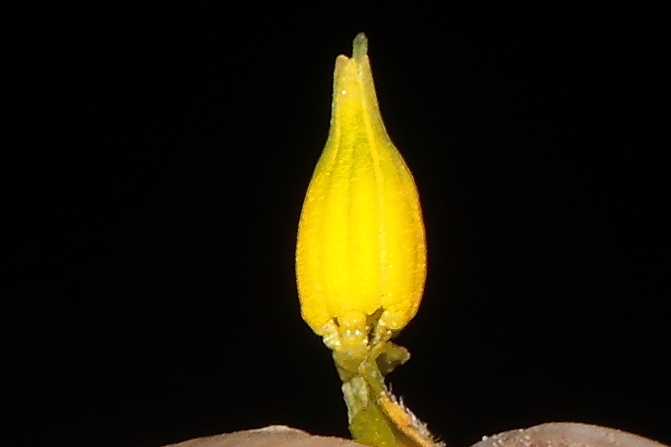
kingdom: Plantae
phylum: Tracheophyta
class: Magnoliopsida
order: Solanales
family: Solanaceae
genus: Solanum
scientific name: Solanum neorickii
